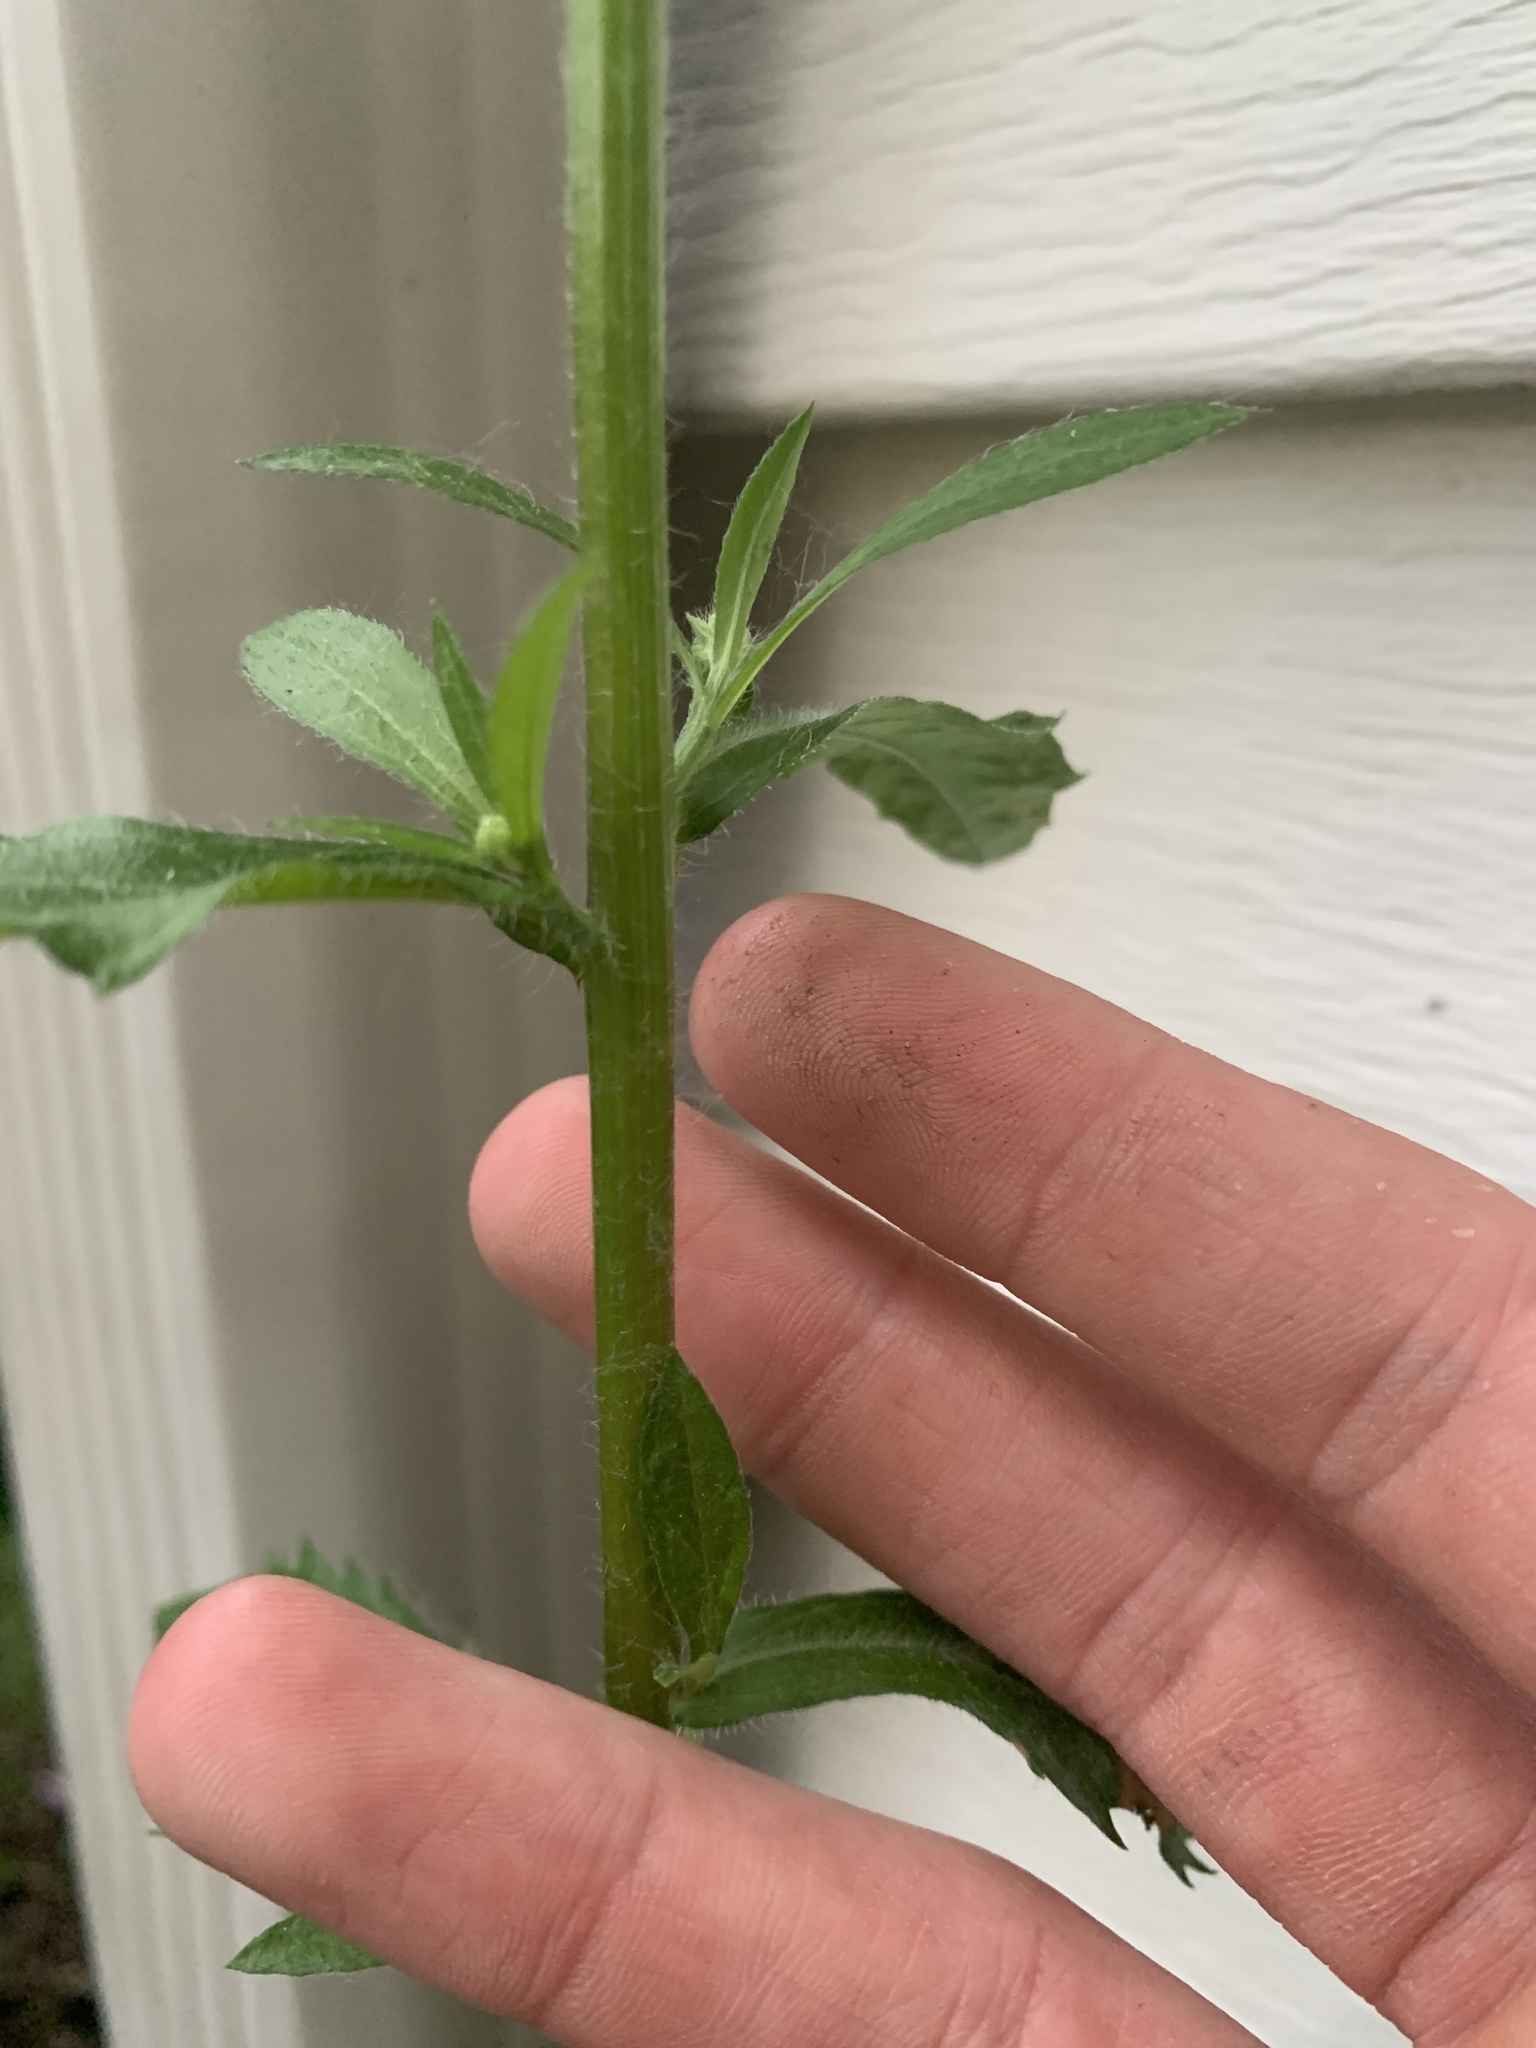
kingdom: Plantae
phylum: Tracheophyta
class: Magnoliopsida
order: Asterales
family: Asteraceae
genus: Erigeron
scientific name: Erigeron annuus
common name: Tall fleabane
